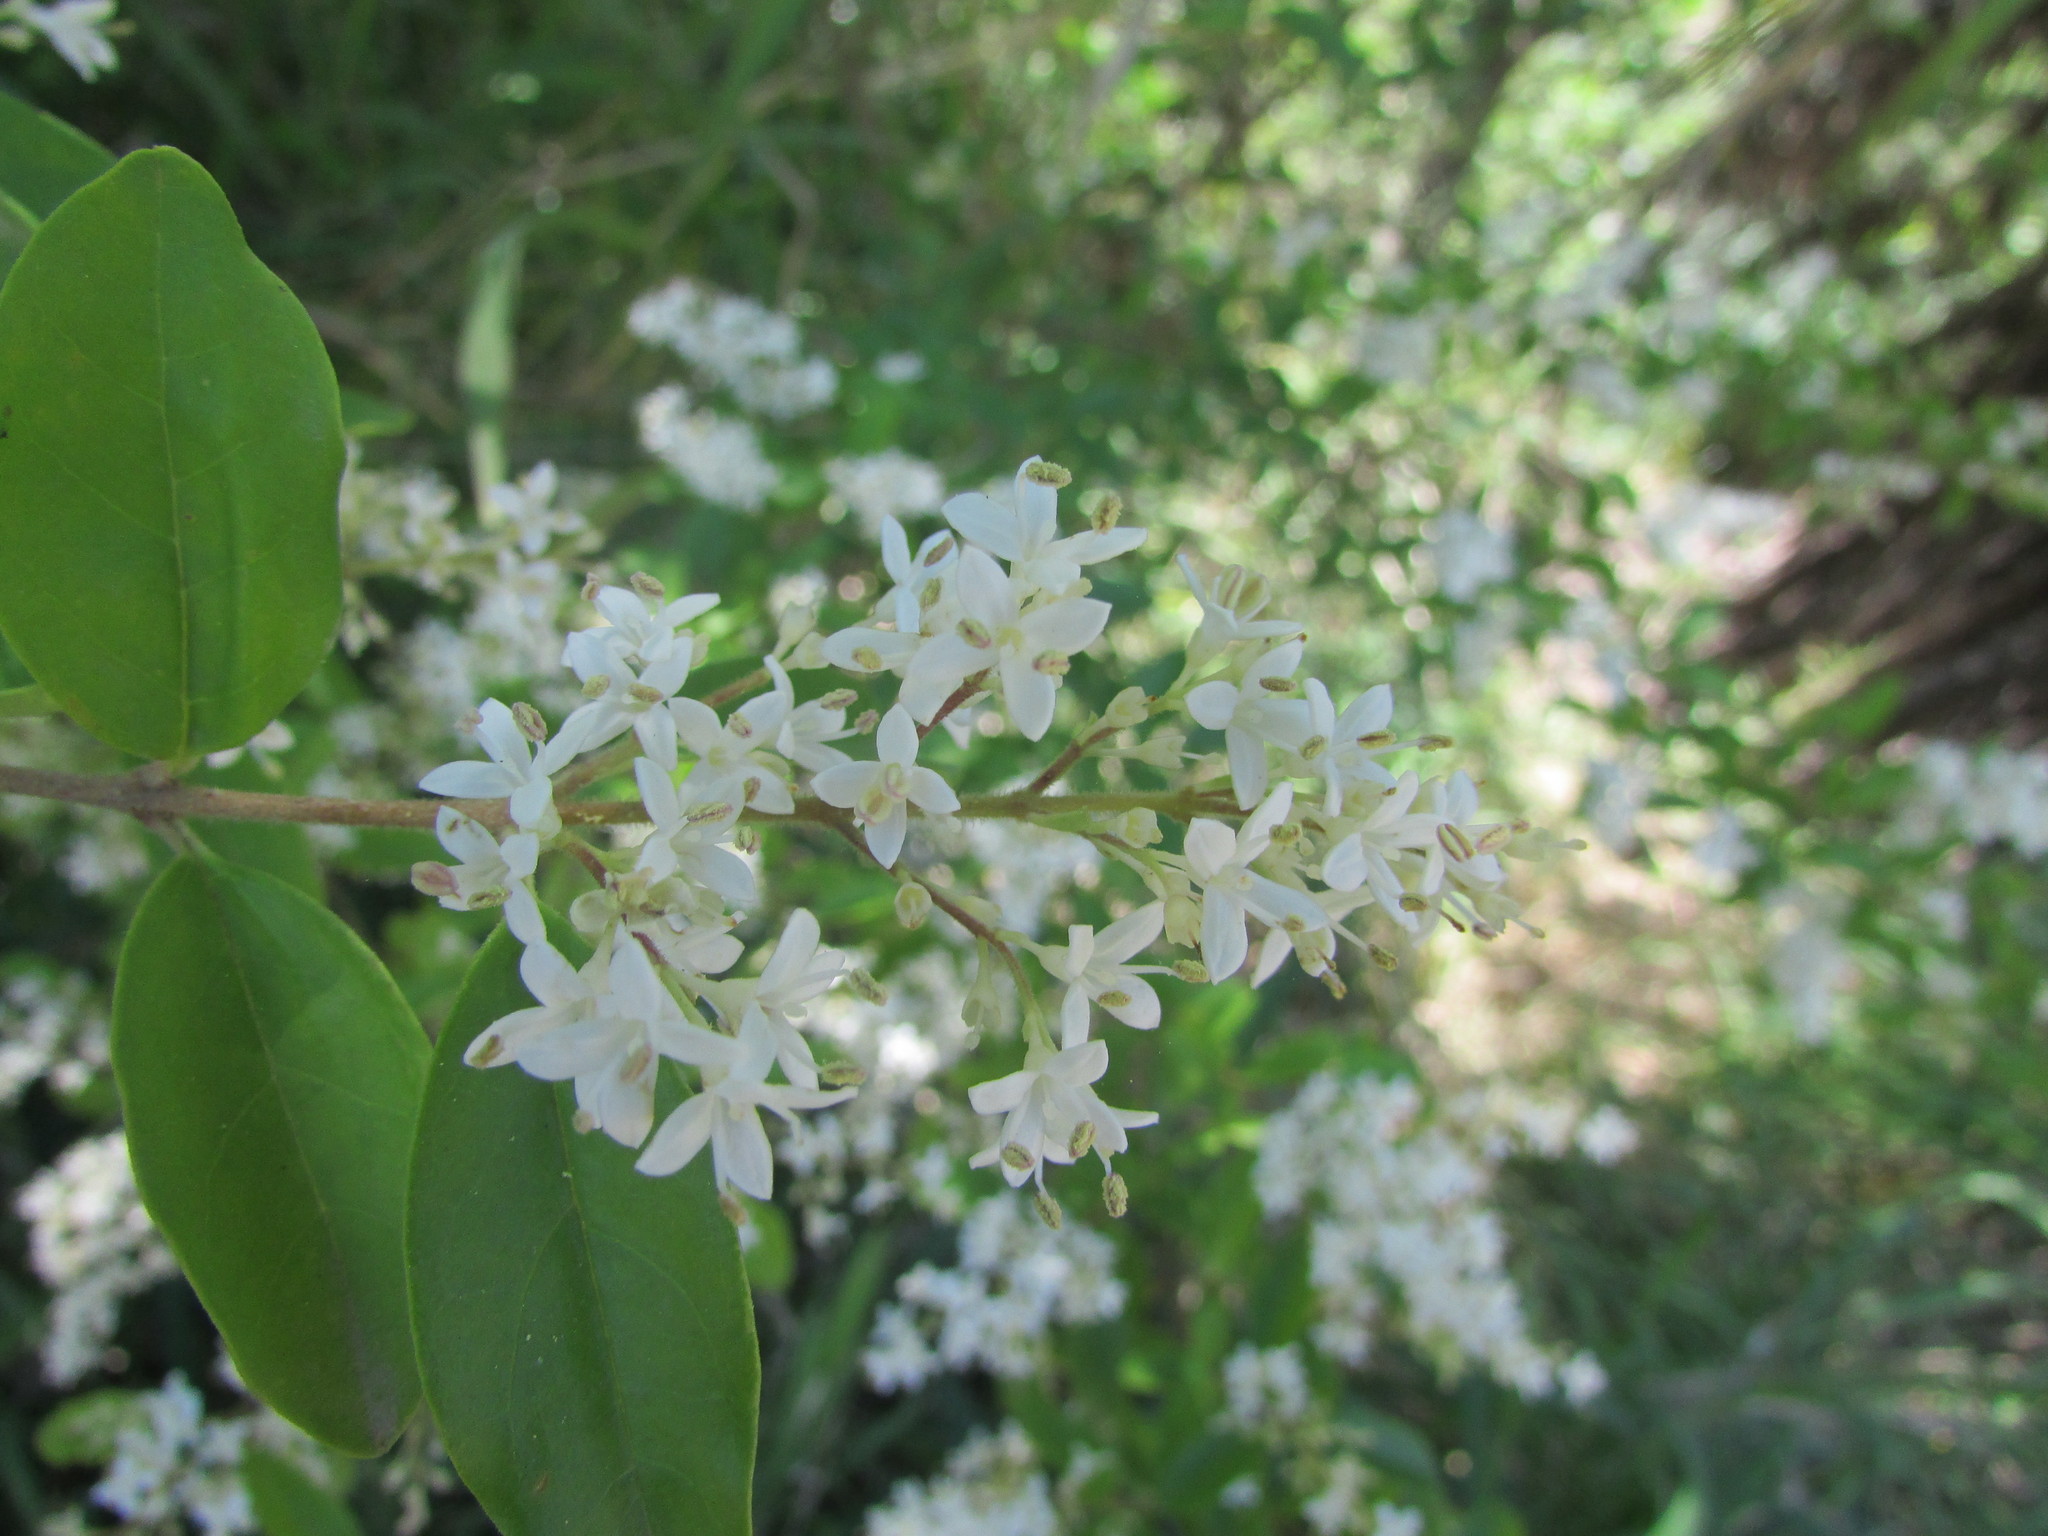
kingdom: Plantae
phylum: Tracheophyta
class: Magnoliopsida
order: Lamiales
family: Oleaceae
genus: Ligustrum
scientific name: Ligustrum sinense
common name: Chinese privet
